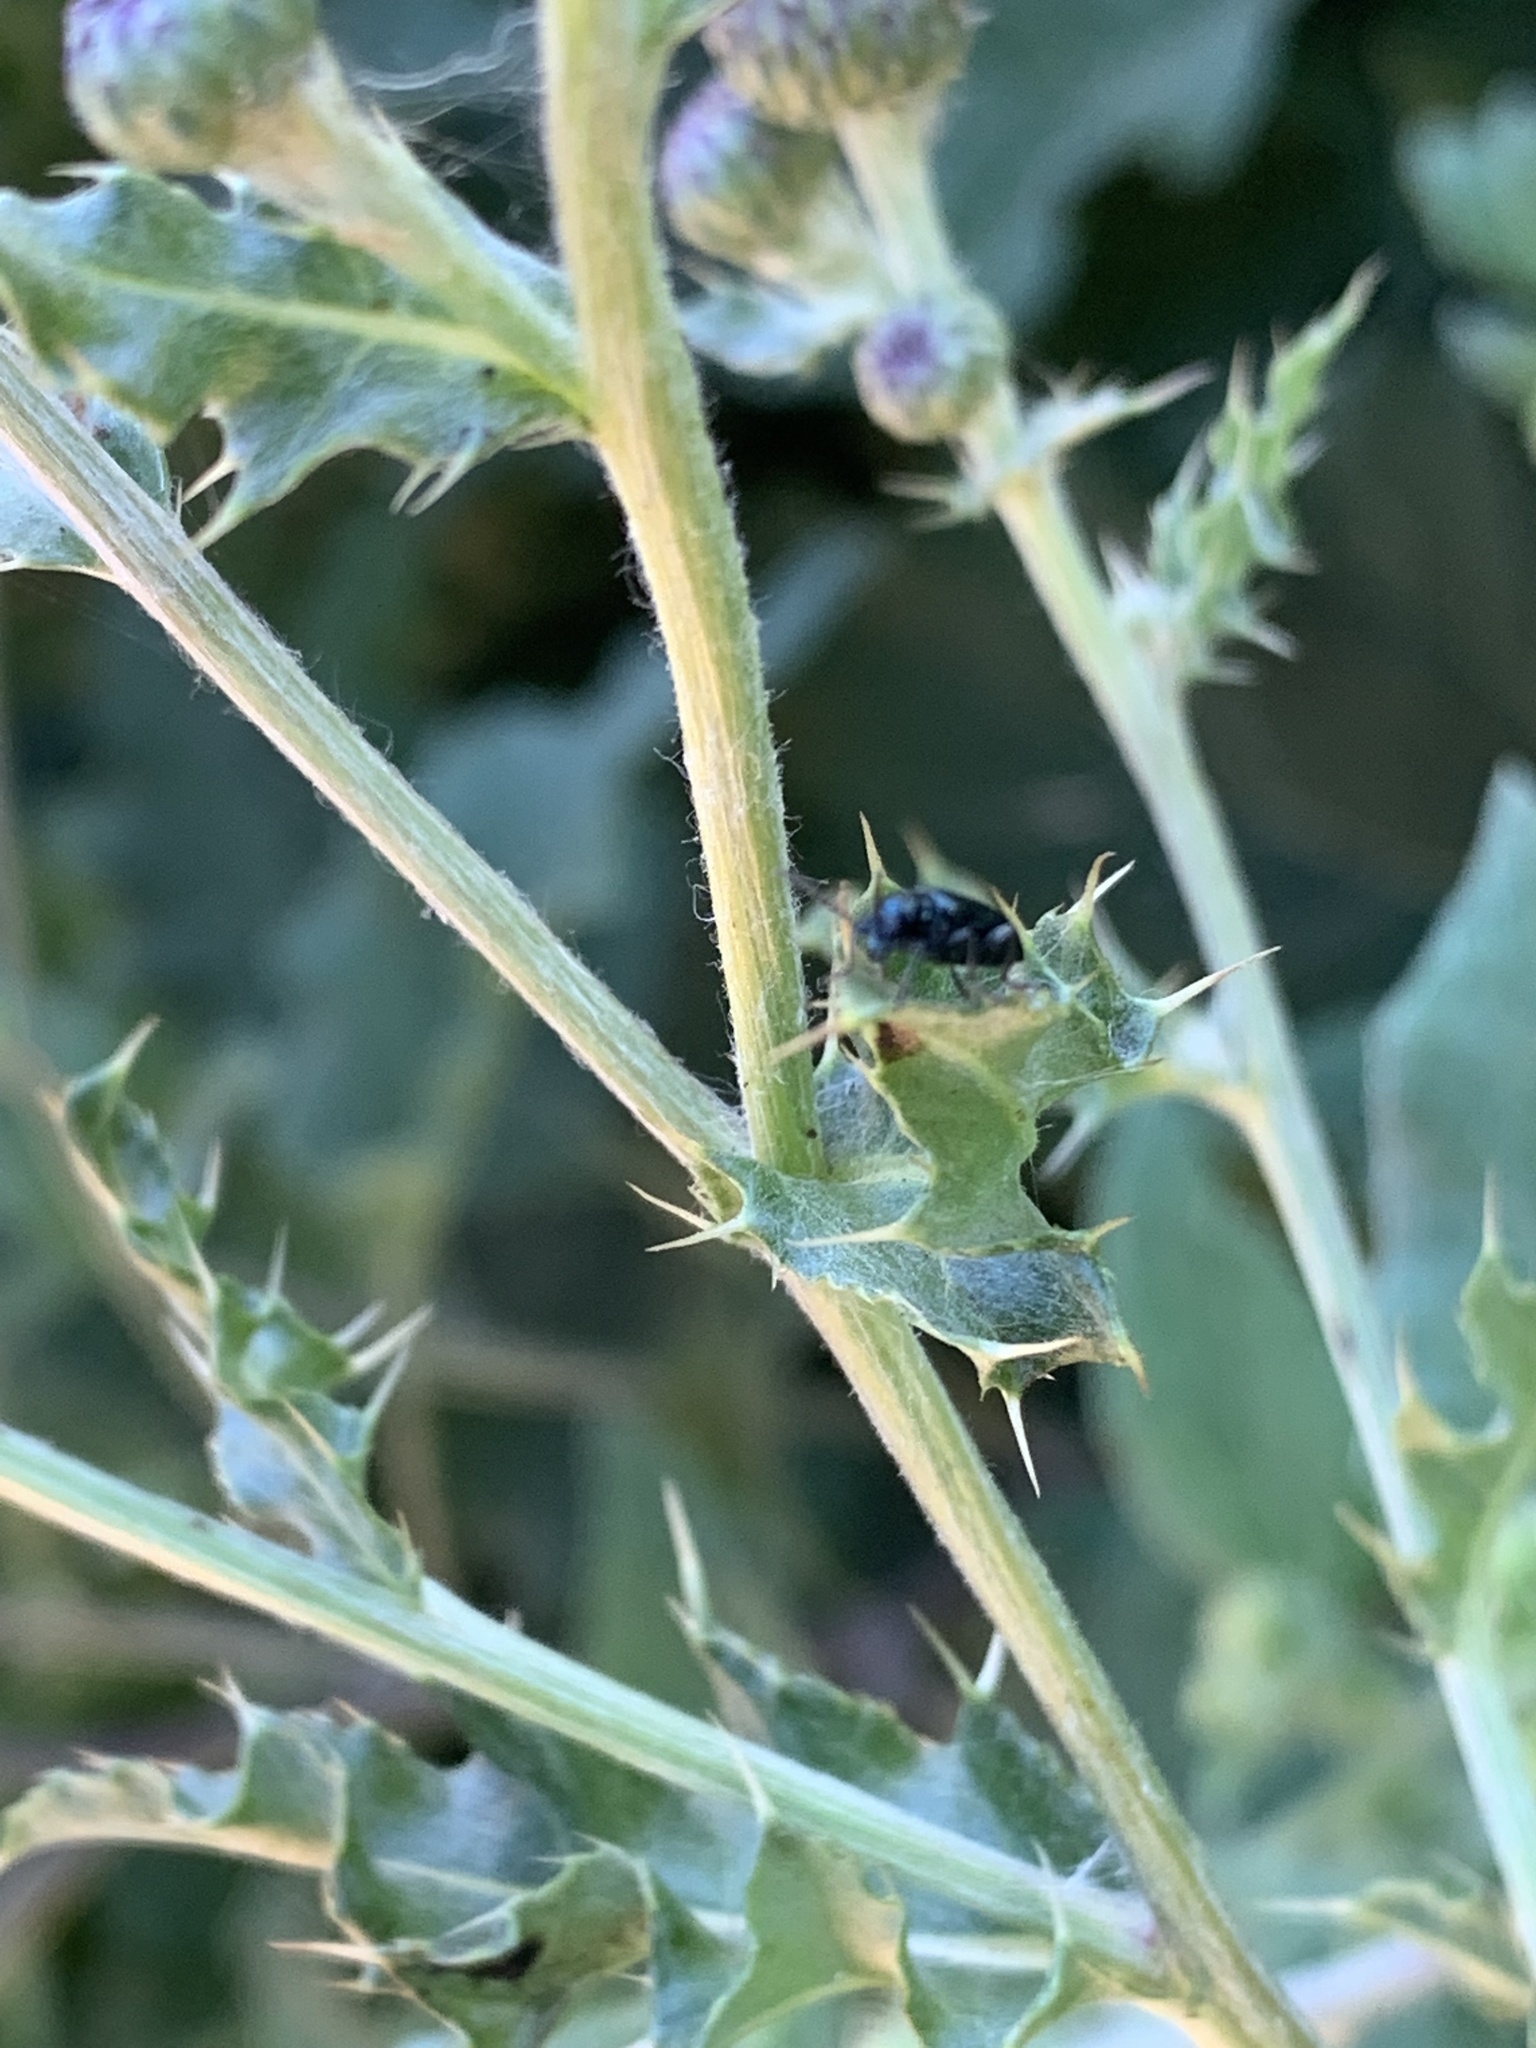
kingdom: Animalia
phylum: Arthropoda
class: Insecta
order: Coleoptera
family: Chrysomelidae
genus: Lema
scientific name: Lema cyanella
